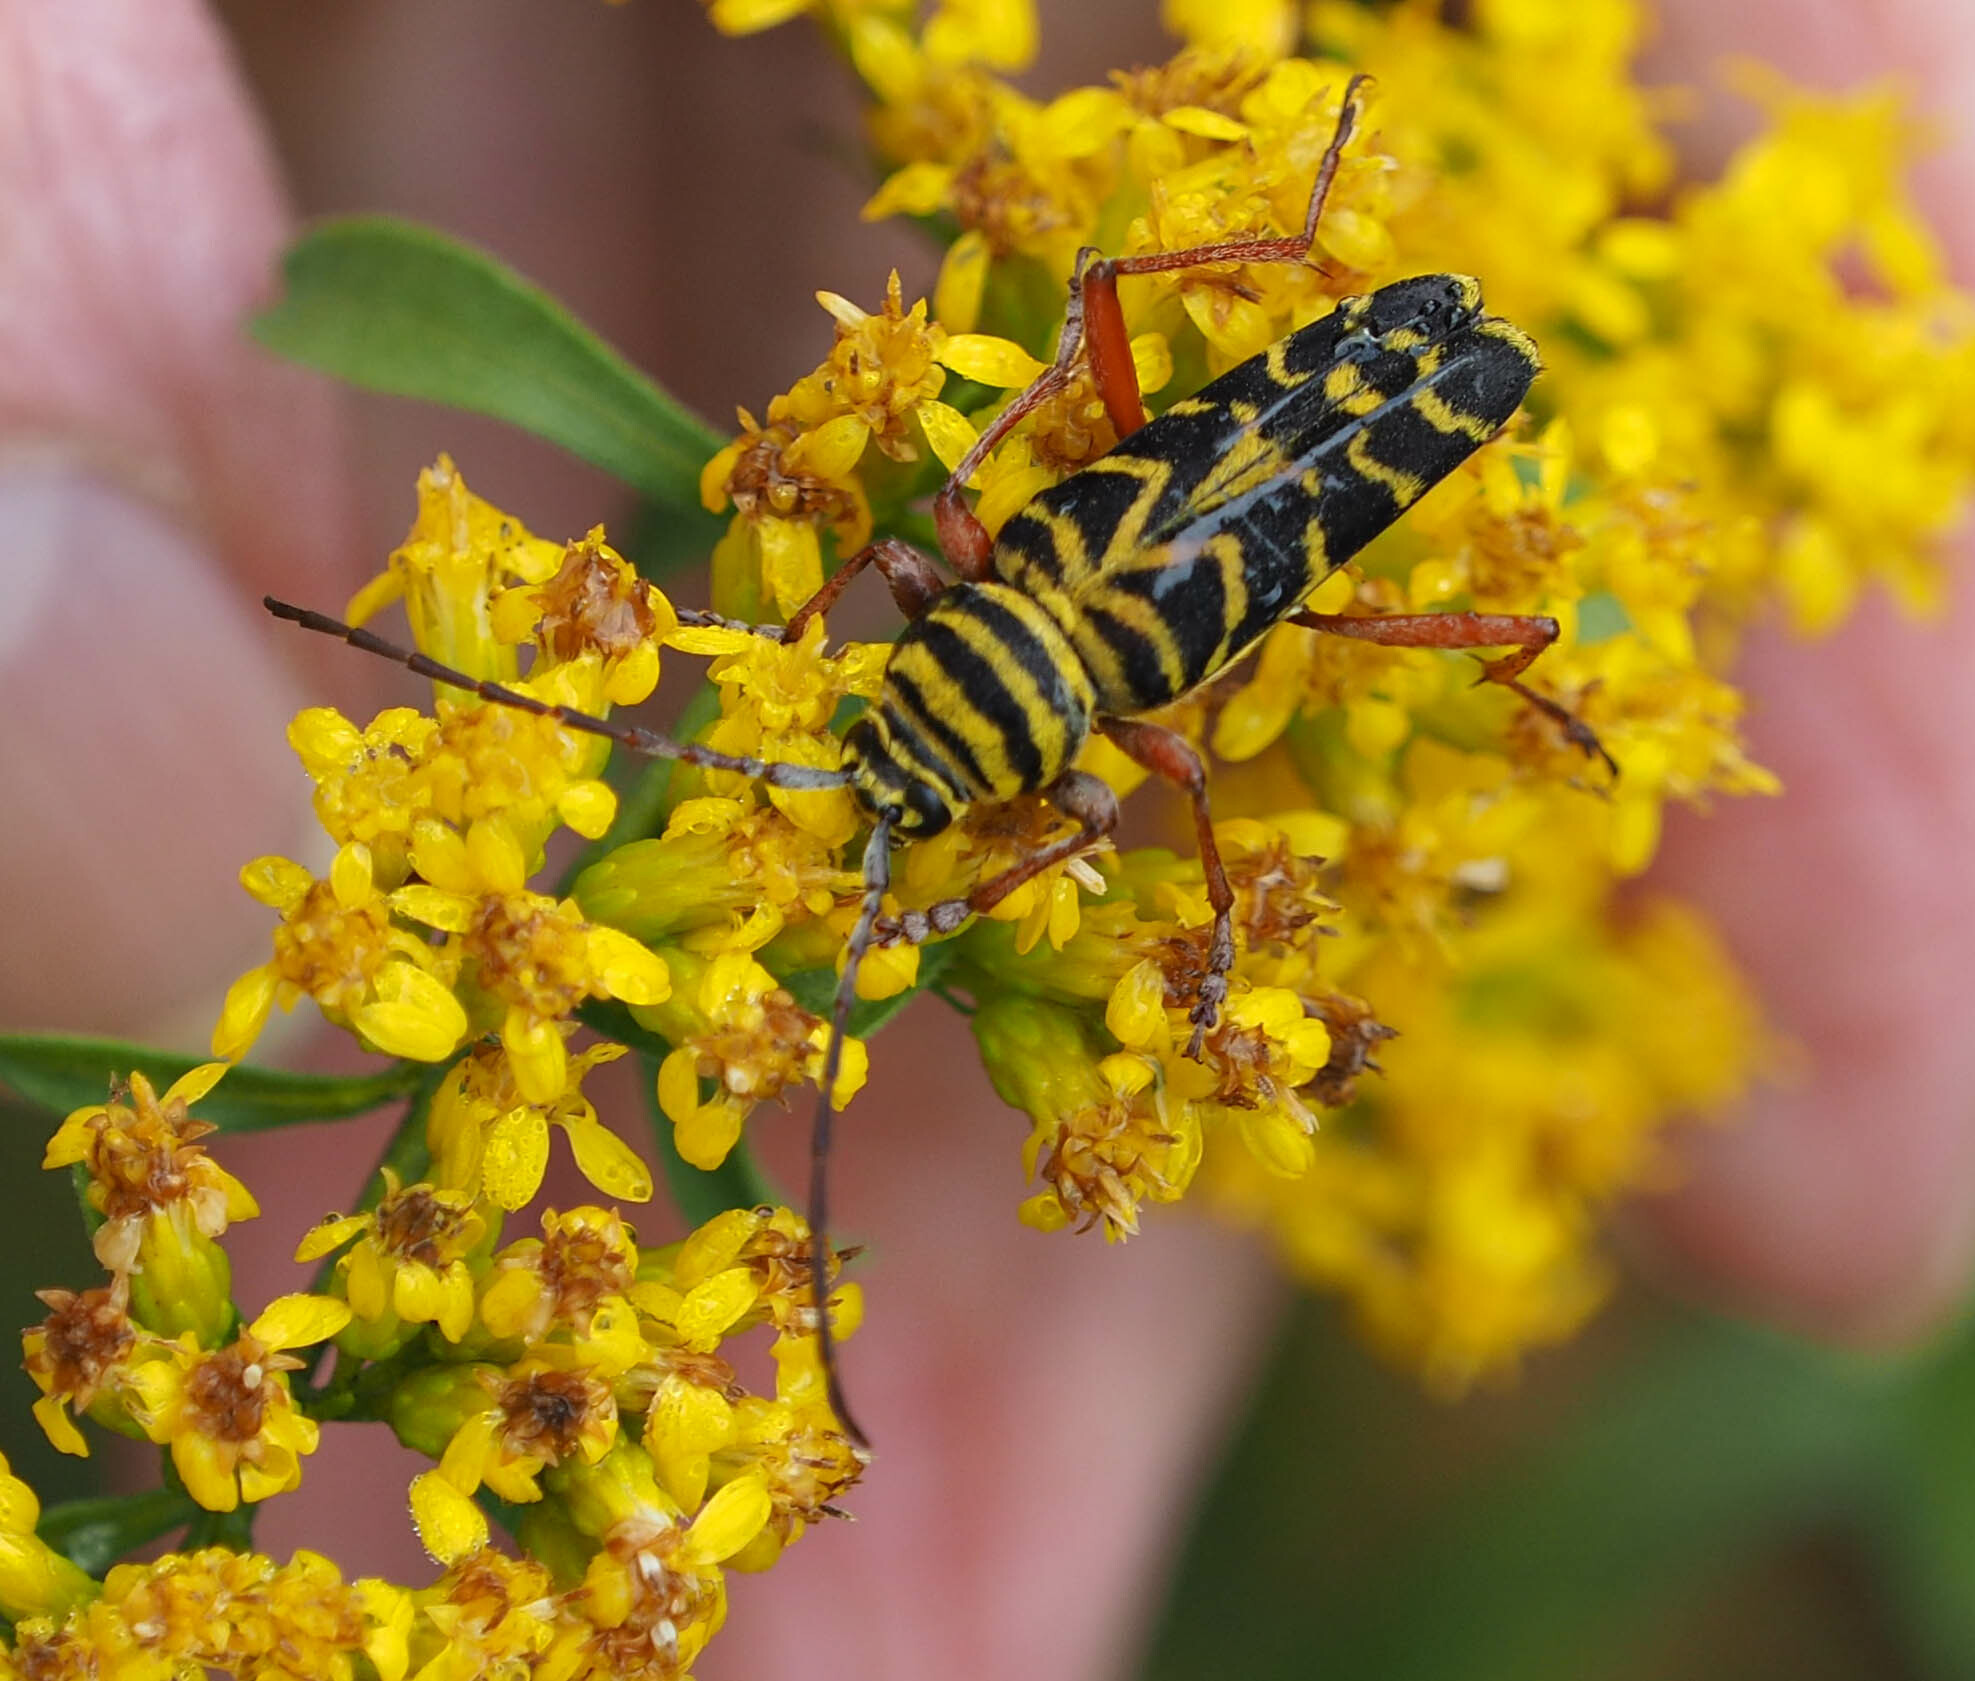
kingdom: Animalia
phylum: Arthropoda
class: Insecta
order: Coleoptera
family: Cerambycidae
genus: Megacyllene
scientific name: Megacyllene robiniae
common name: Locust borer
